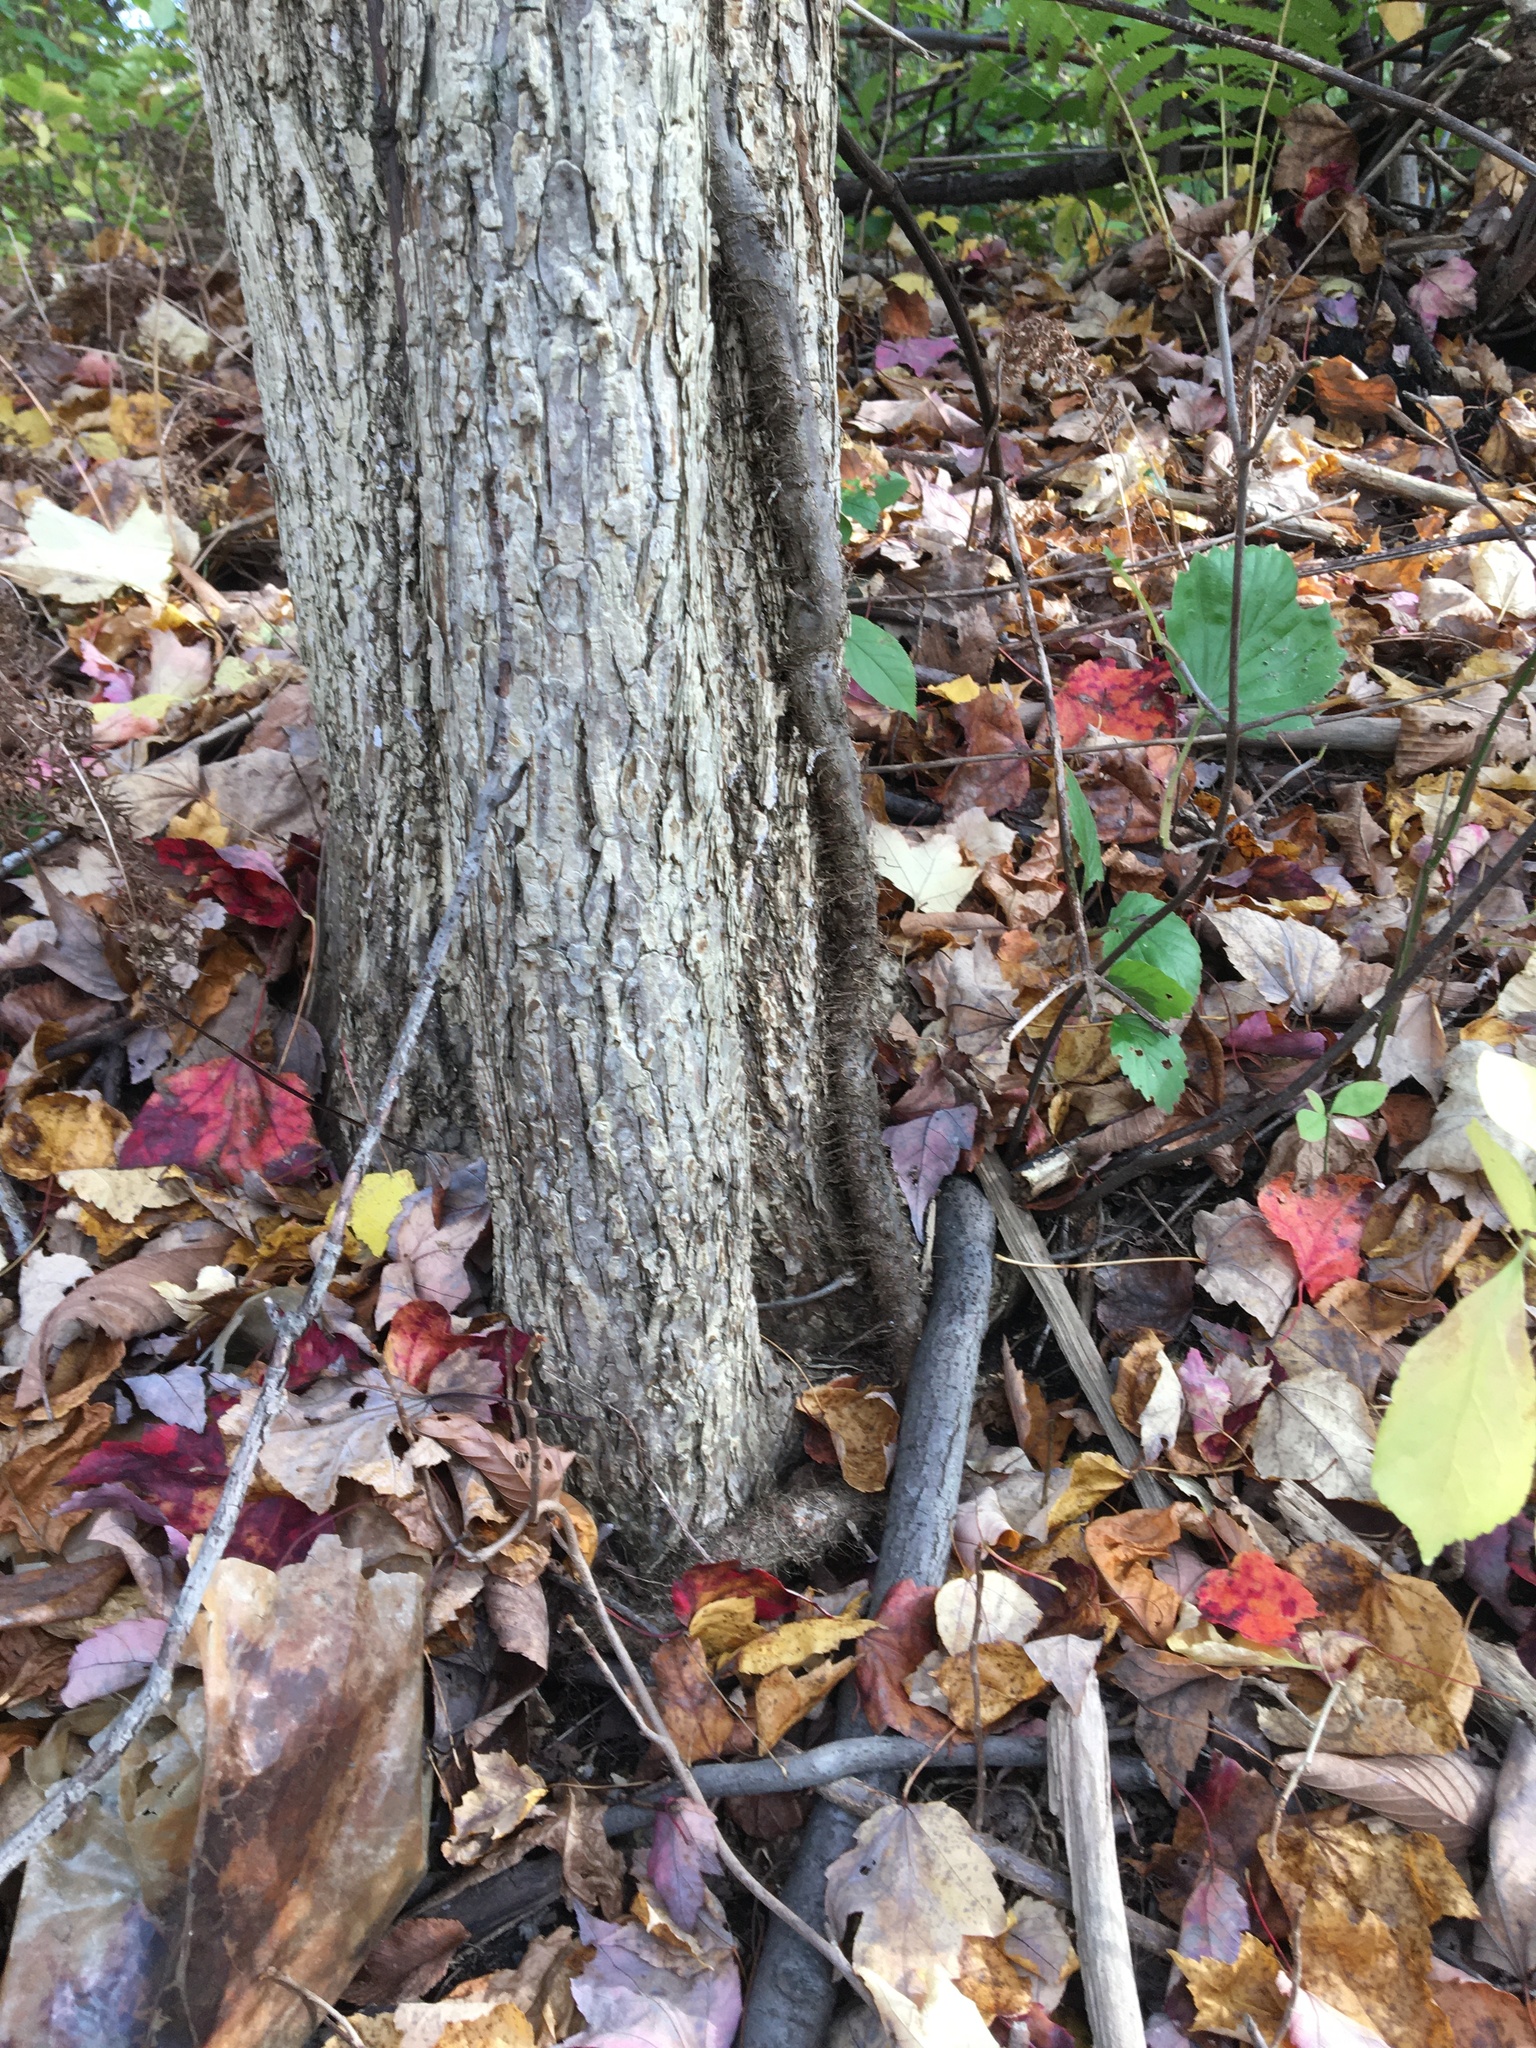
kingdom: Plantae
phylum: Tracheophyta
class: Magnoliopsida
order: Sapindales
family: Anacardiaceae
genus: Toxicodendron
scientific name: Toxicodendron radicans
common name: Poison ivy
